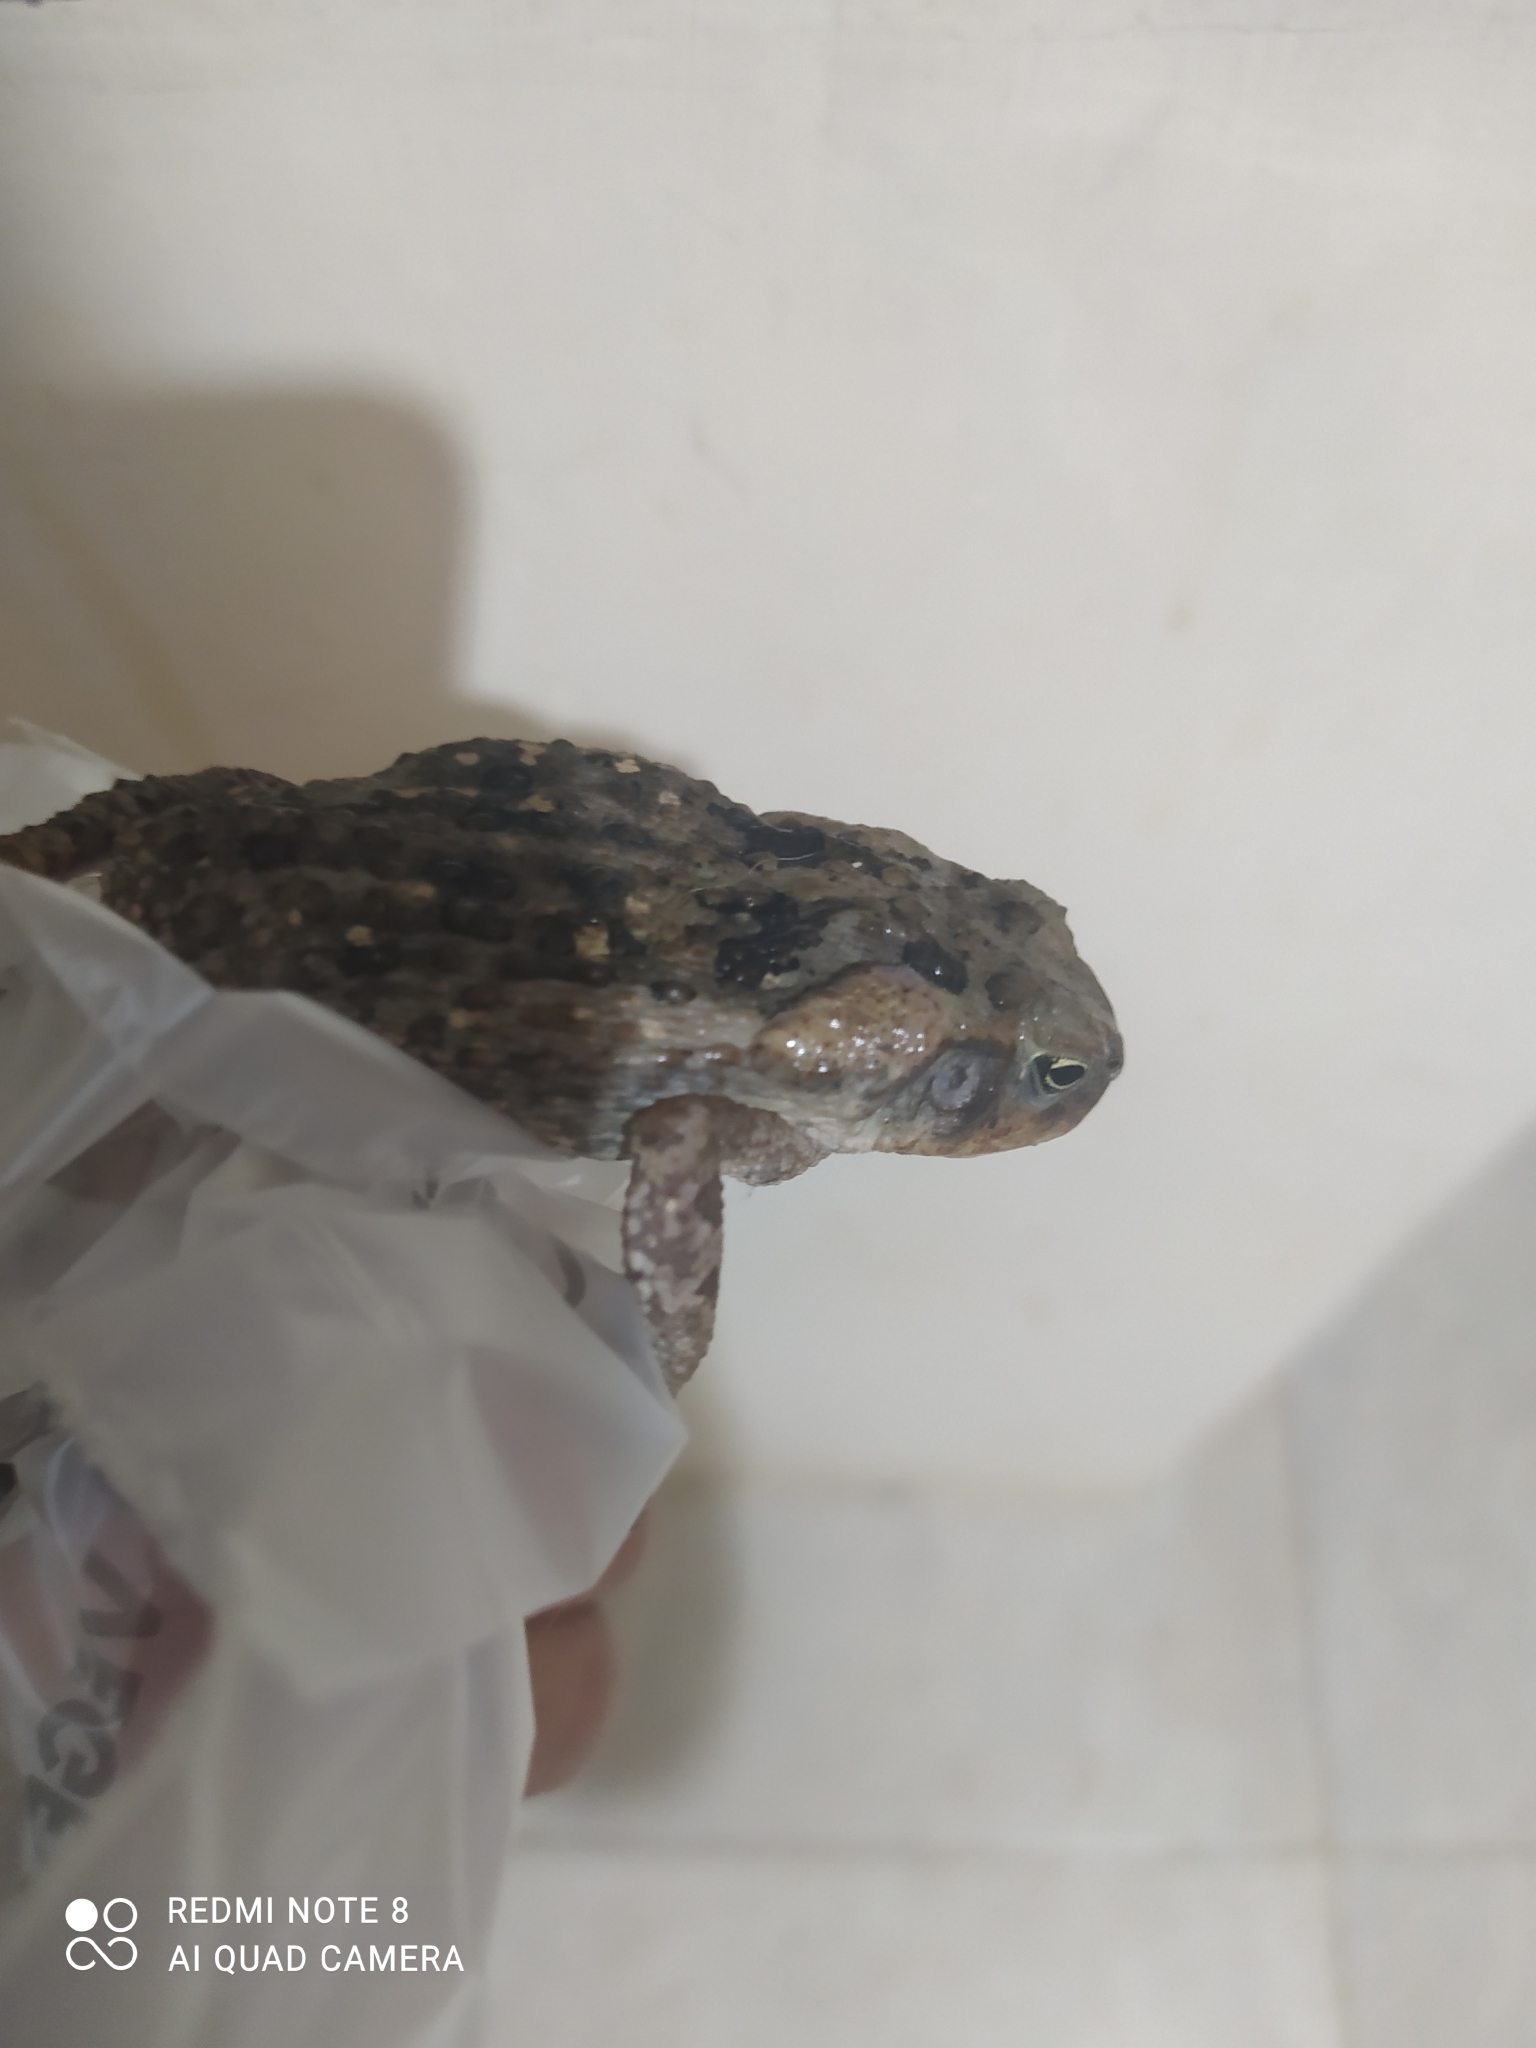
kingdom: Animalia
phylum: Chordata
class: Amphibia
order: Anura
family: Bufonidae
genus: Rhinella
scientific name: Rhinella
